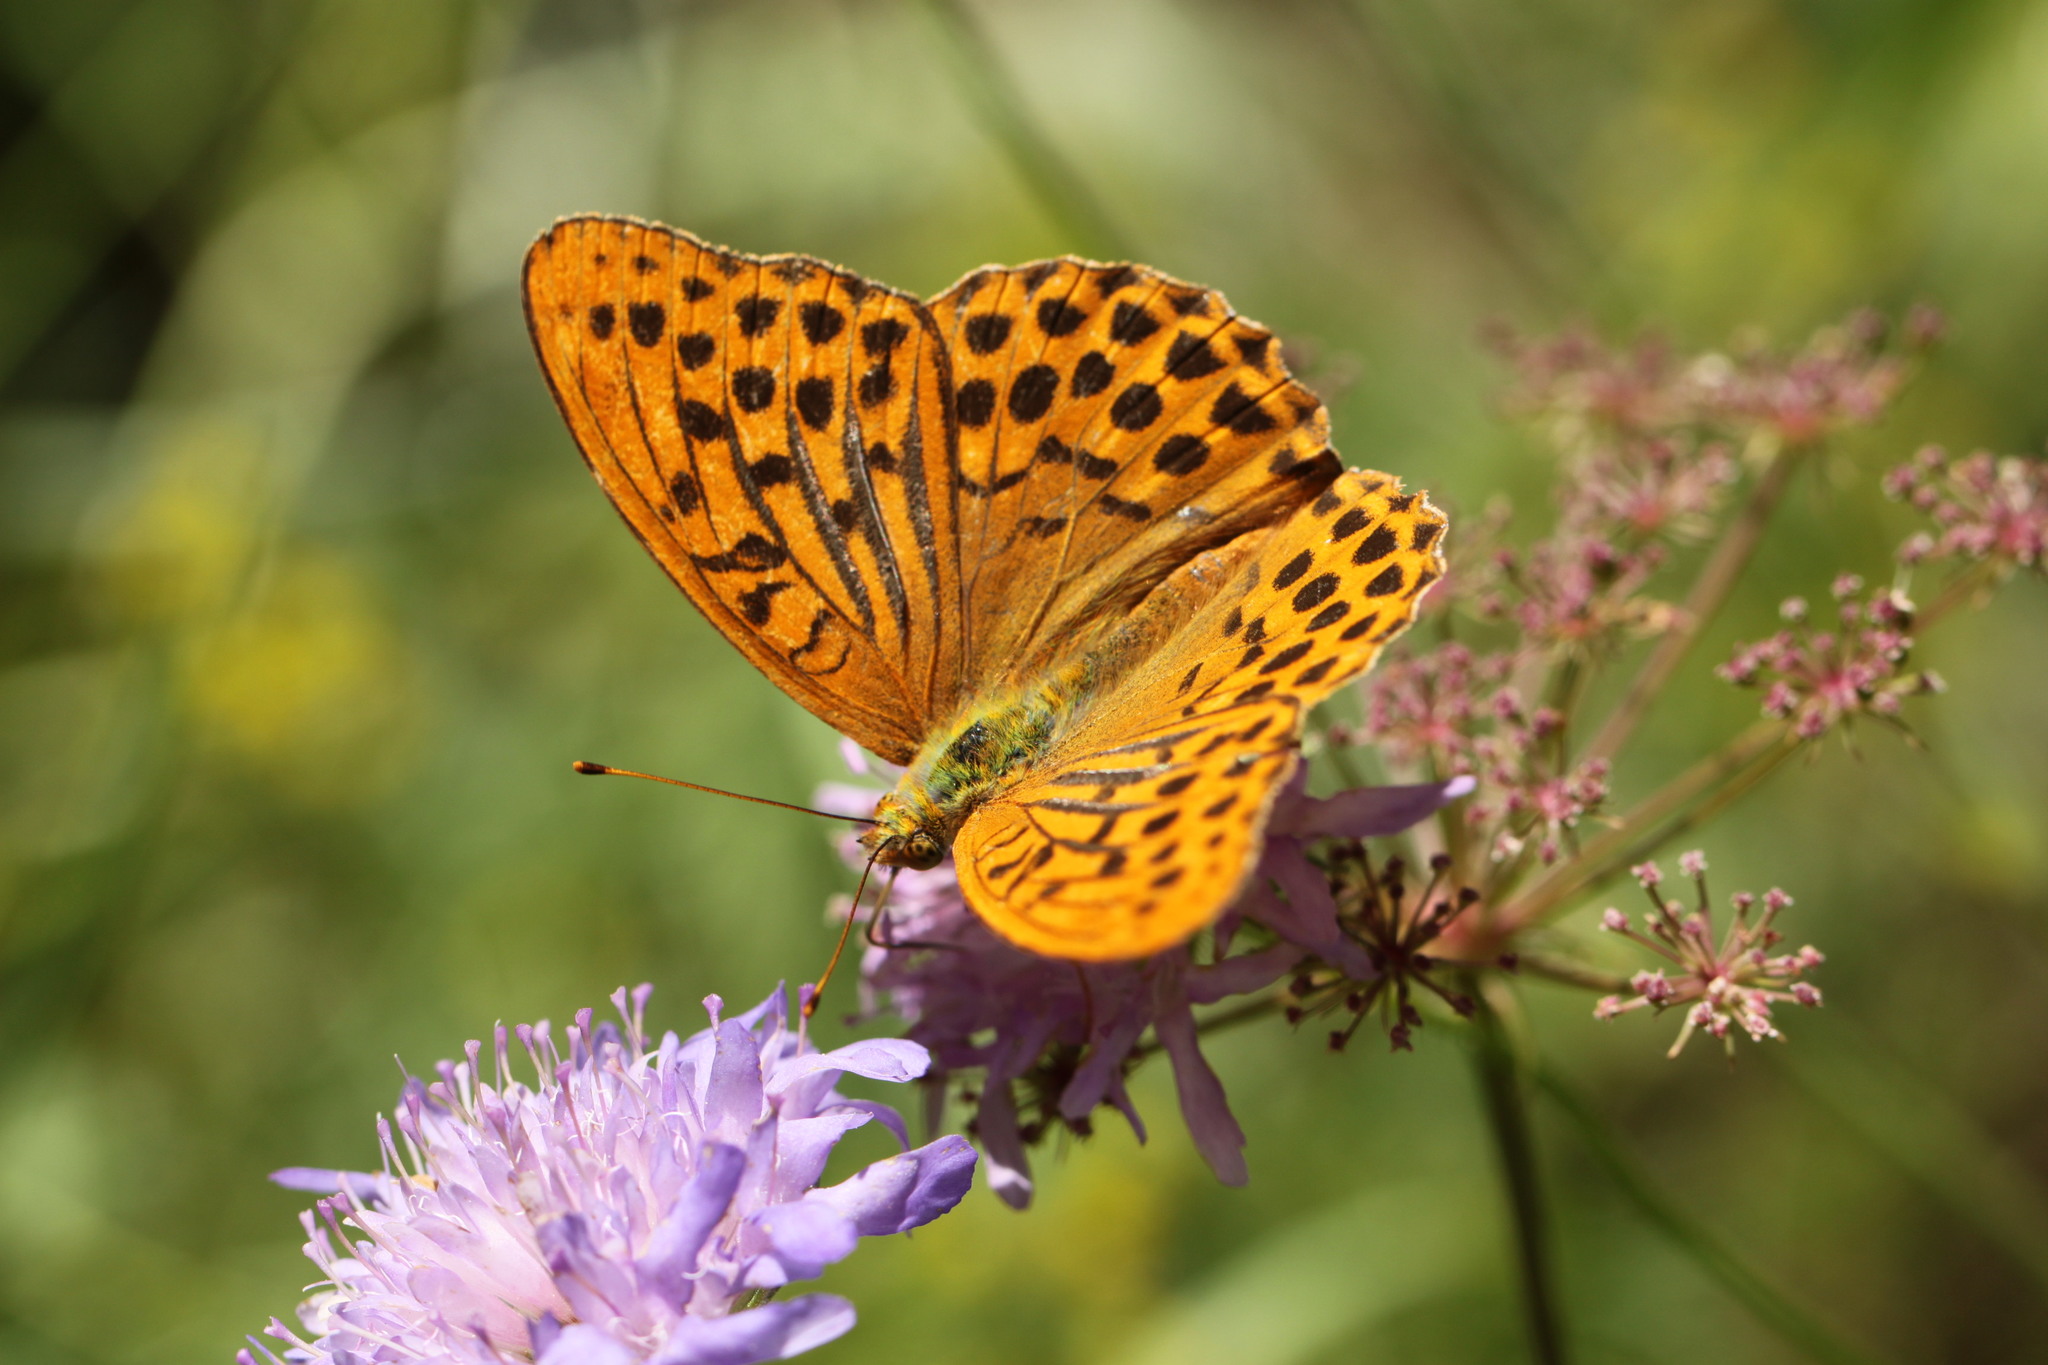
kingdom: Animalia
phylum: Arthropoda
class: Insecta
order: Lepidoptera
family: Nymphalidae
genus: Argynnis
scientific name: Argynnis paphia
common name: Silver-washed fritillary
